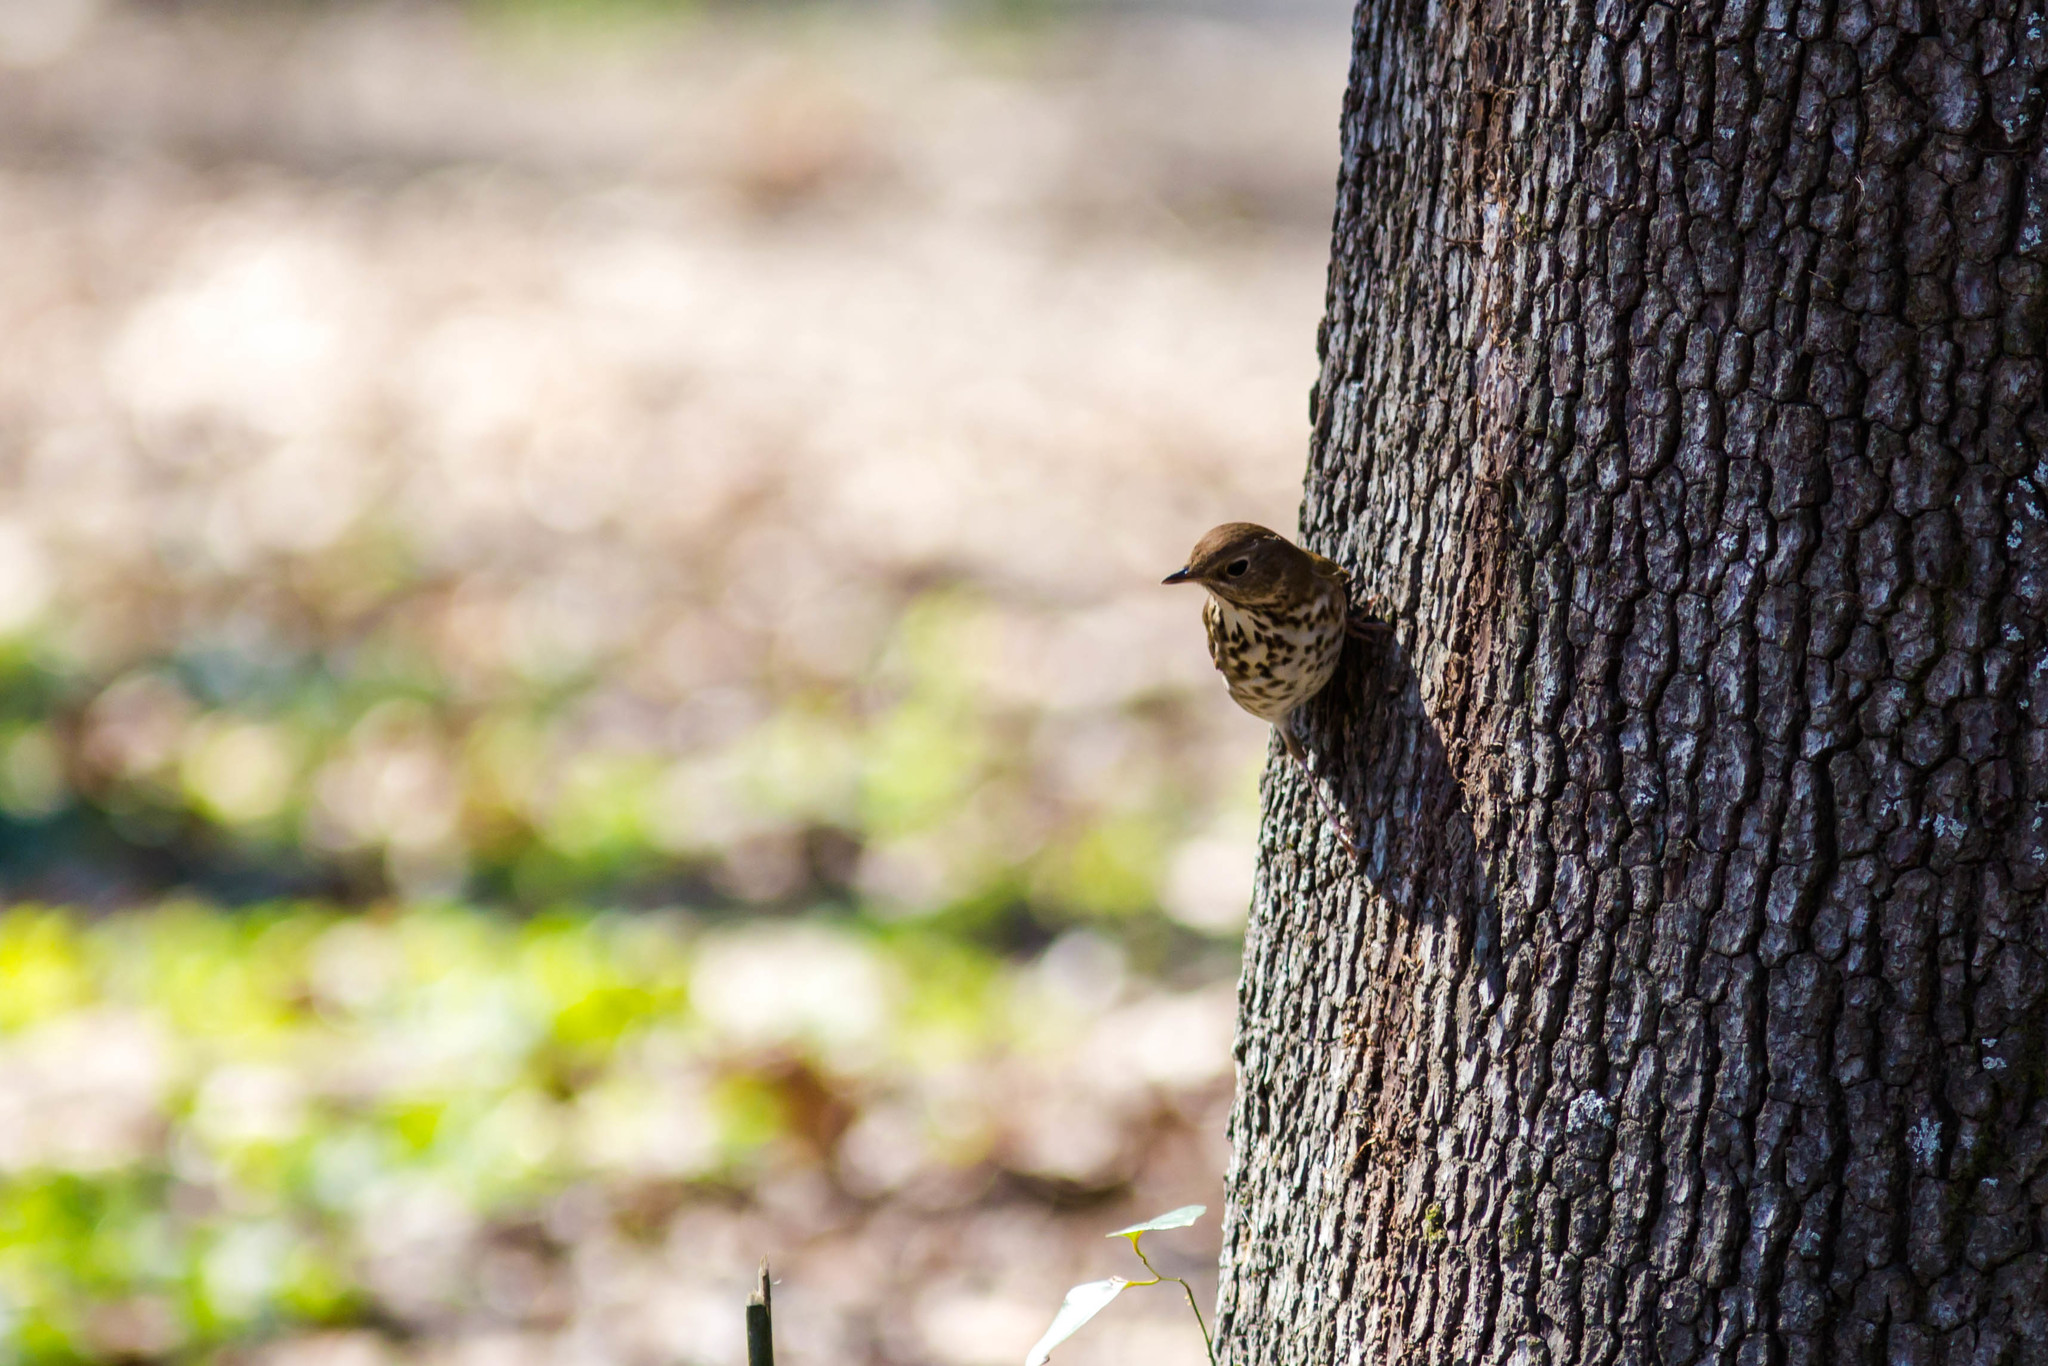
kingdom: Animalia
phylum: Chordata
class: Aves
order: Passeriformes
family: Turdidae
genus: Catharus
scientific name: Catharus guttatus
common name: Hermit thrush
